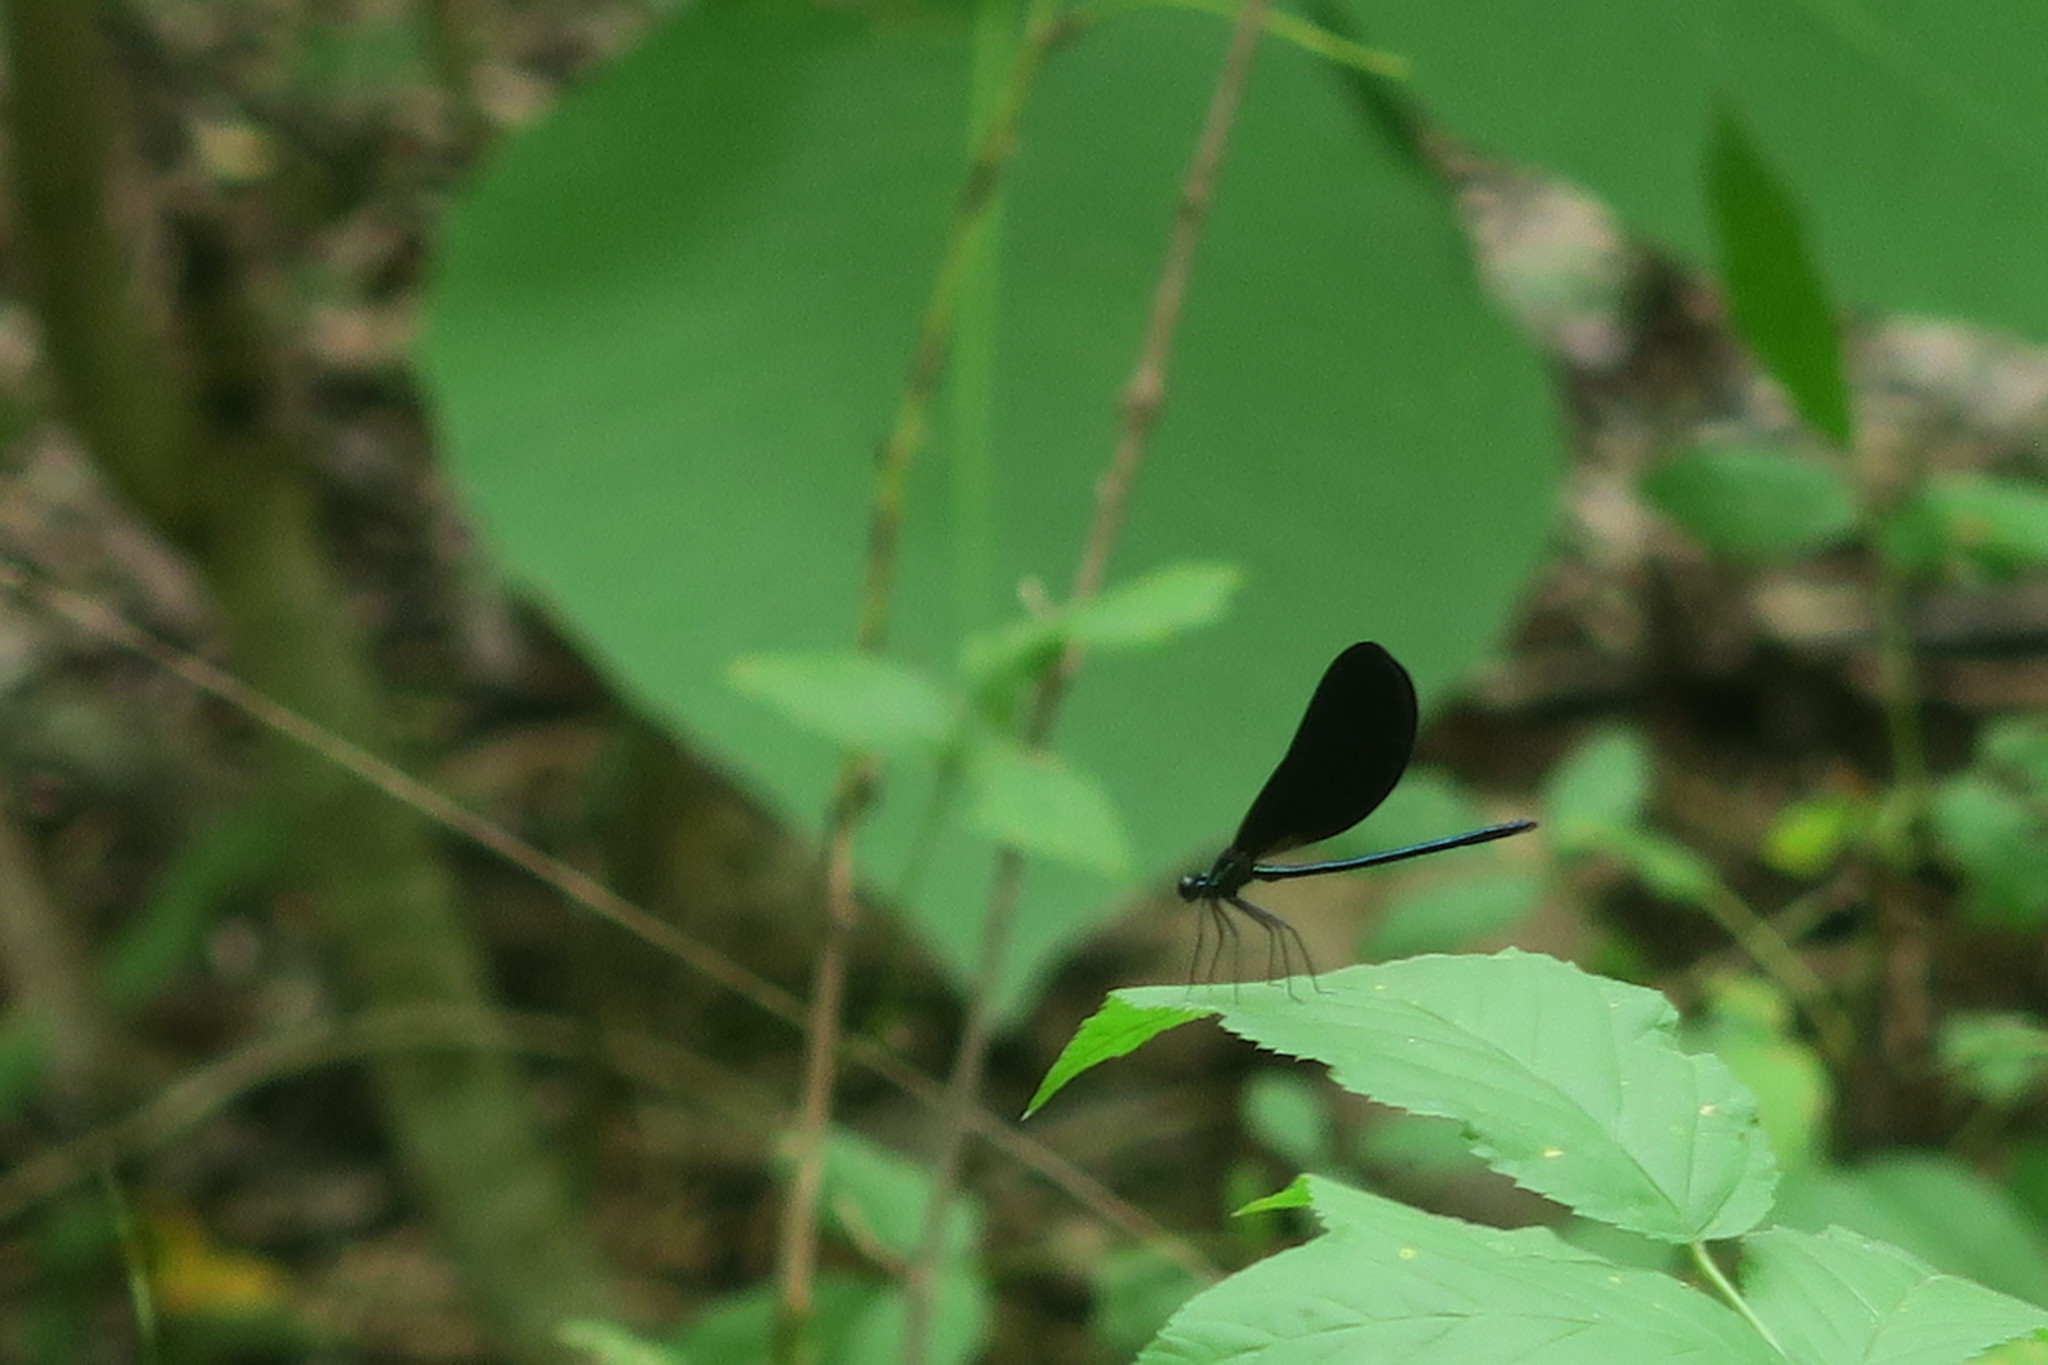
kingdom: Animalia
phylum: Arthropoda
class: Insecta
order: Odonata
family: Calopterygidae
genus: Calopteryx
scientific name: Calopteryx maculata
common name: Ebony jewelwing
